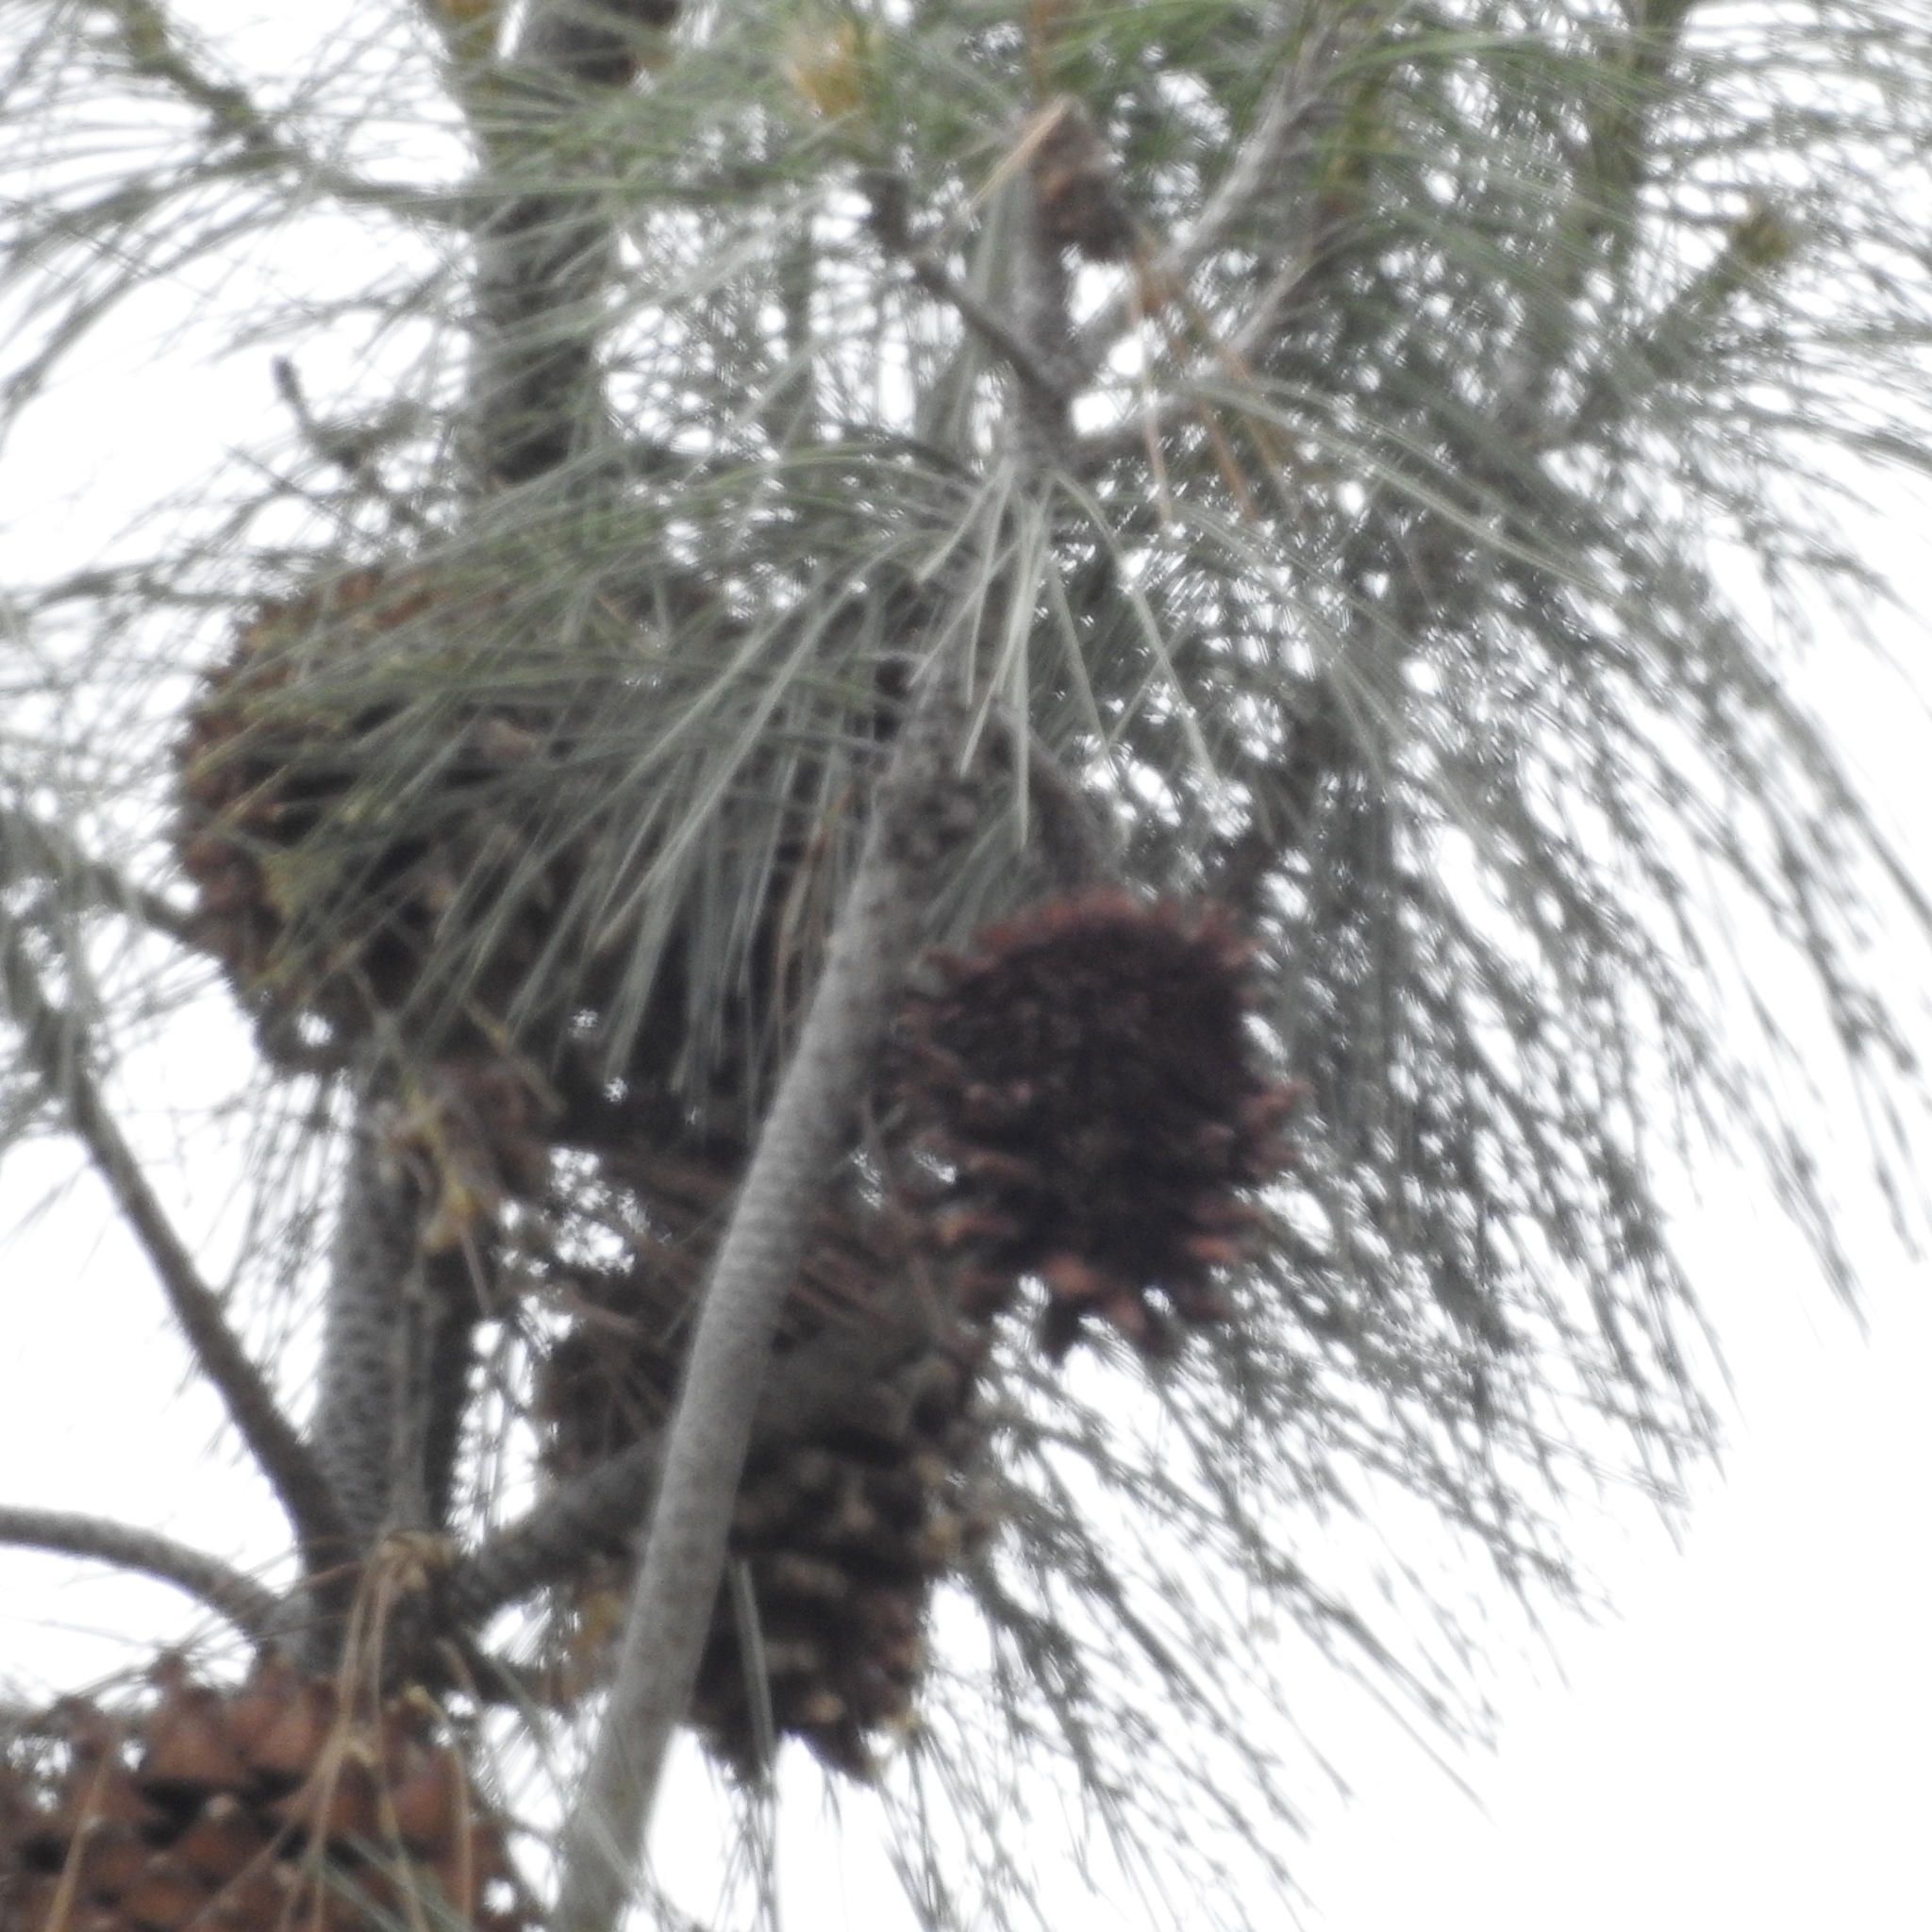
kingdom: Plantae
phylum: Tracheophyta
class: Pinopsida
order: Pinales
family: Pinaceae
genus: Pinus
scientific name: Pinus sabiniana
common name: Bull pine
